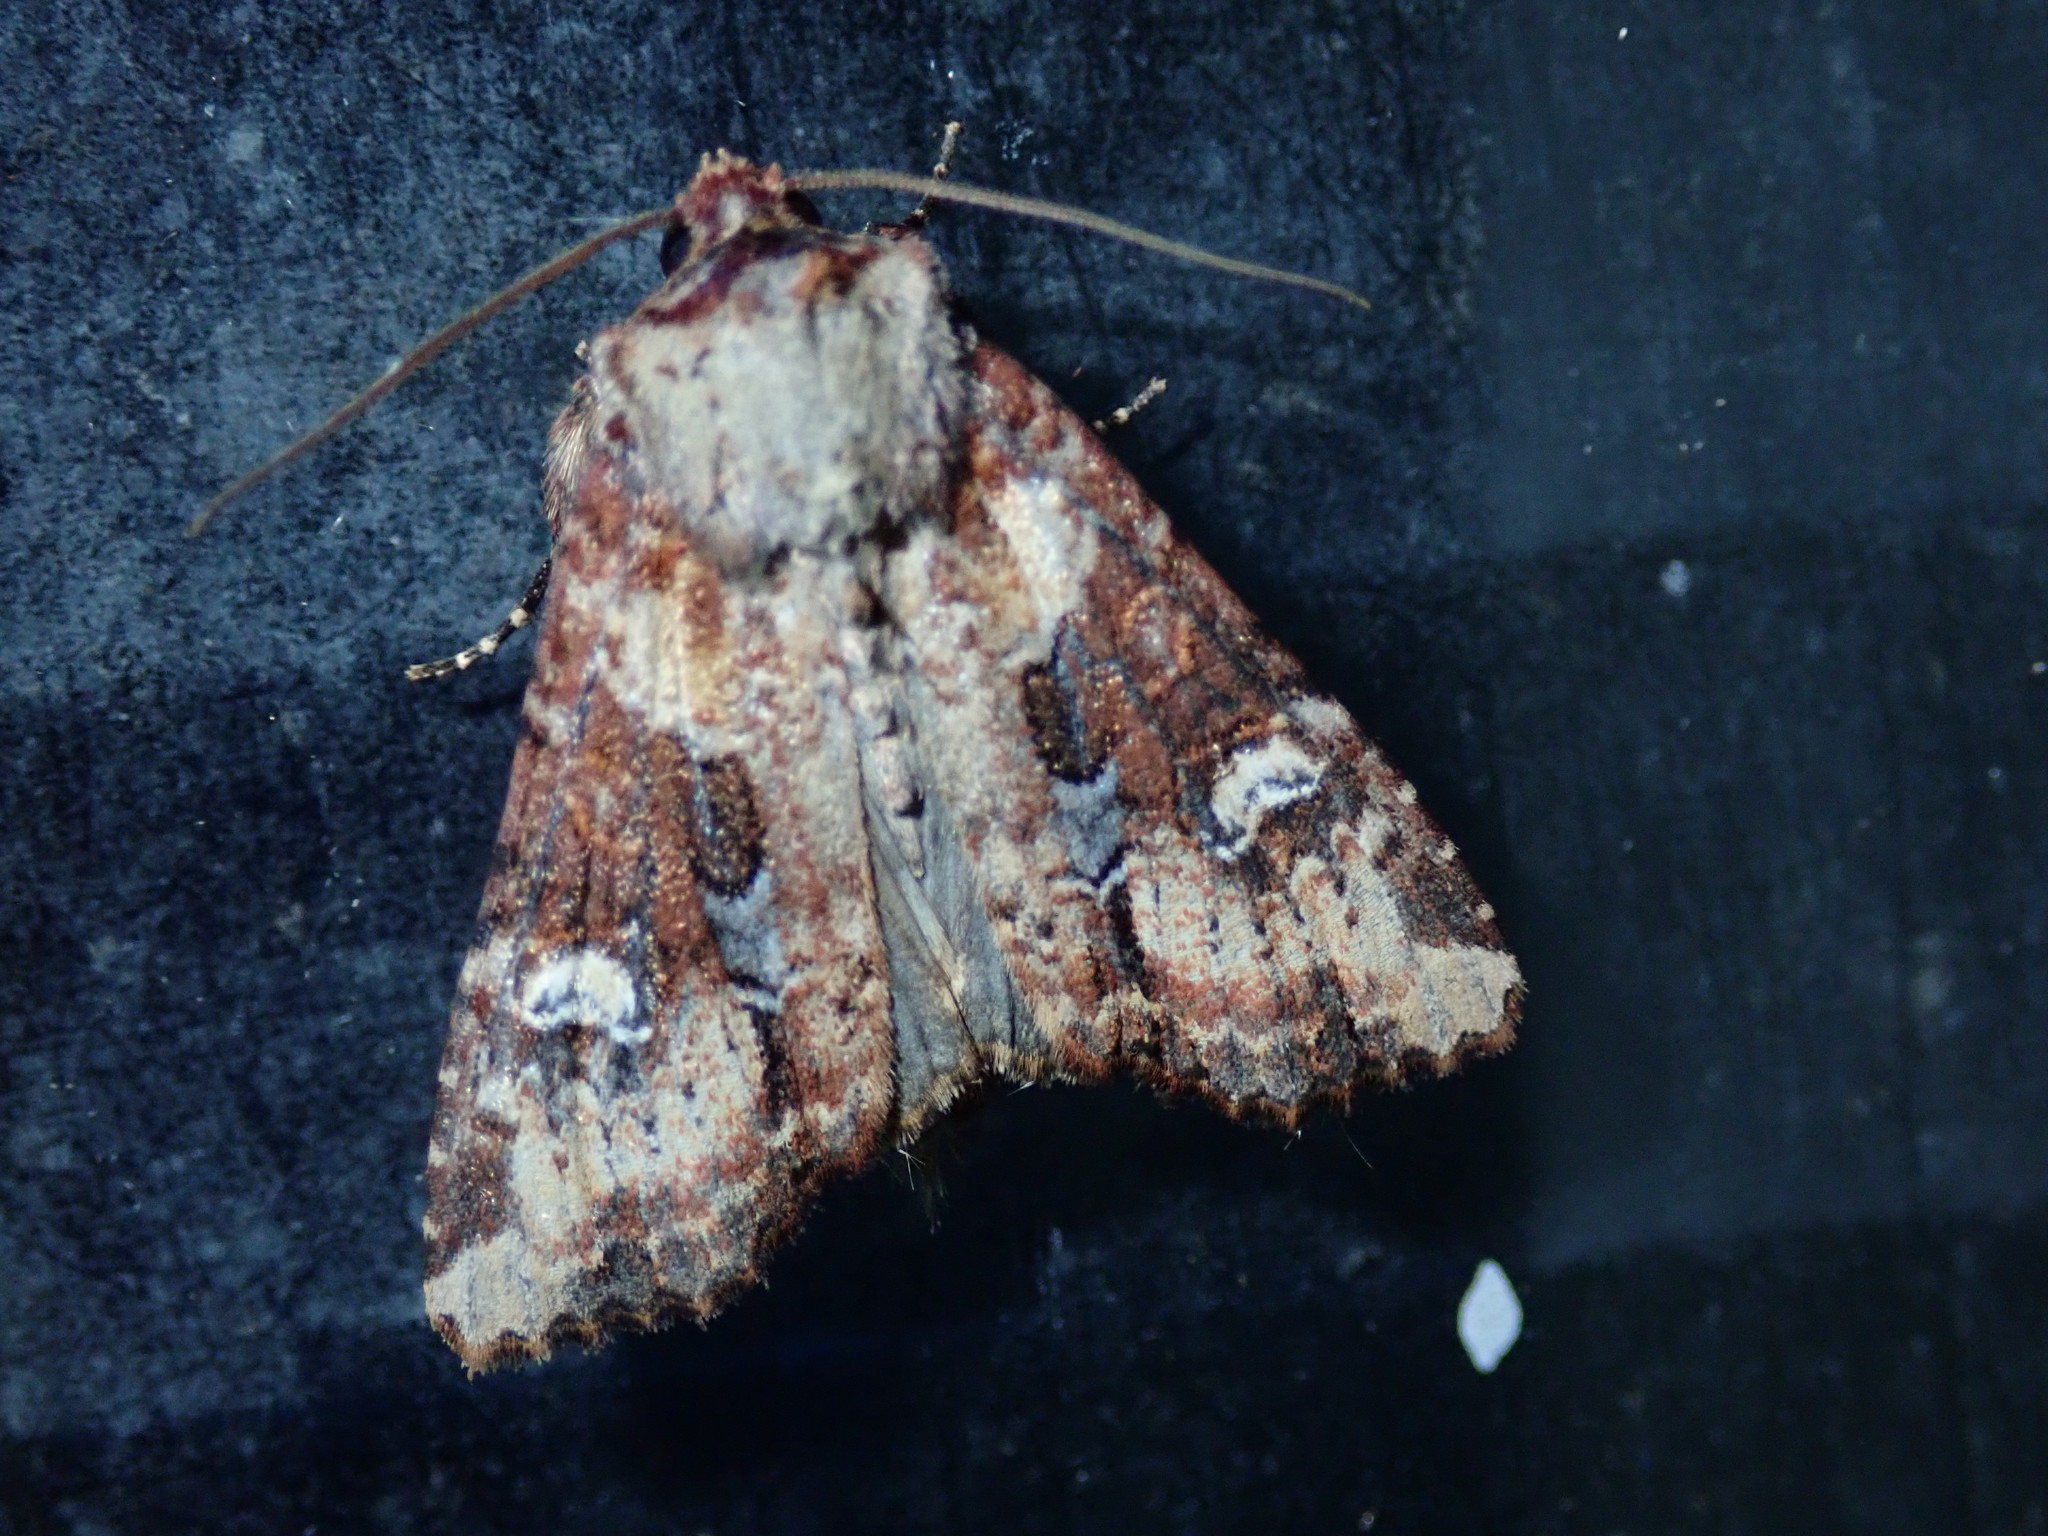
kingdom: Animalia
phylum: Arthropoda
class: Insecta
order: Lepidoptera
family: Noctuidae
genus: Leucapamea
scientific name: Leucapamea formosensis
